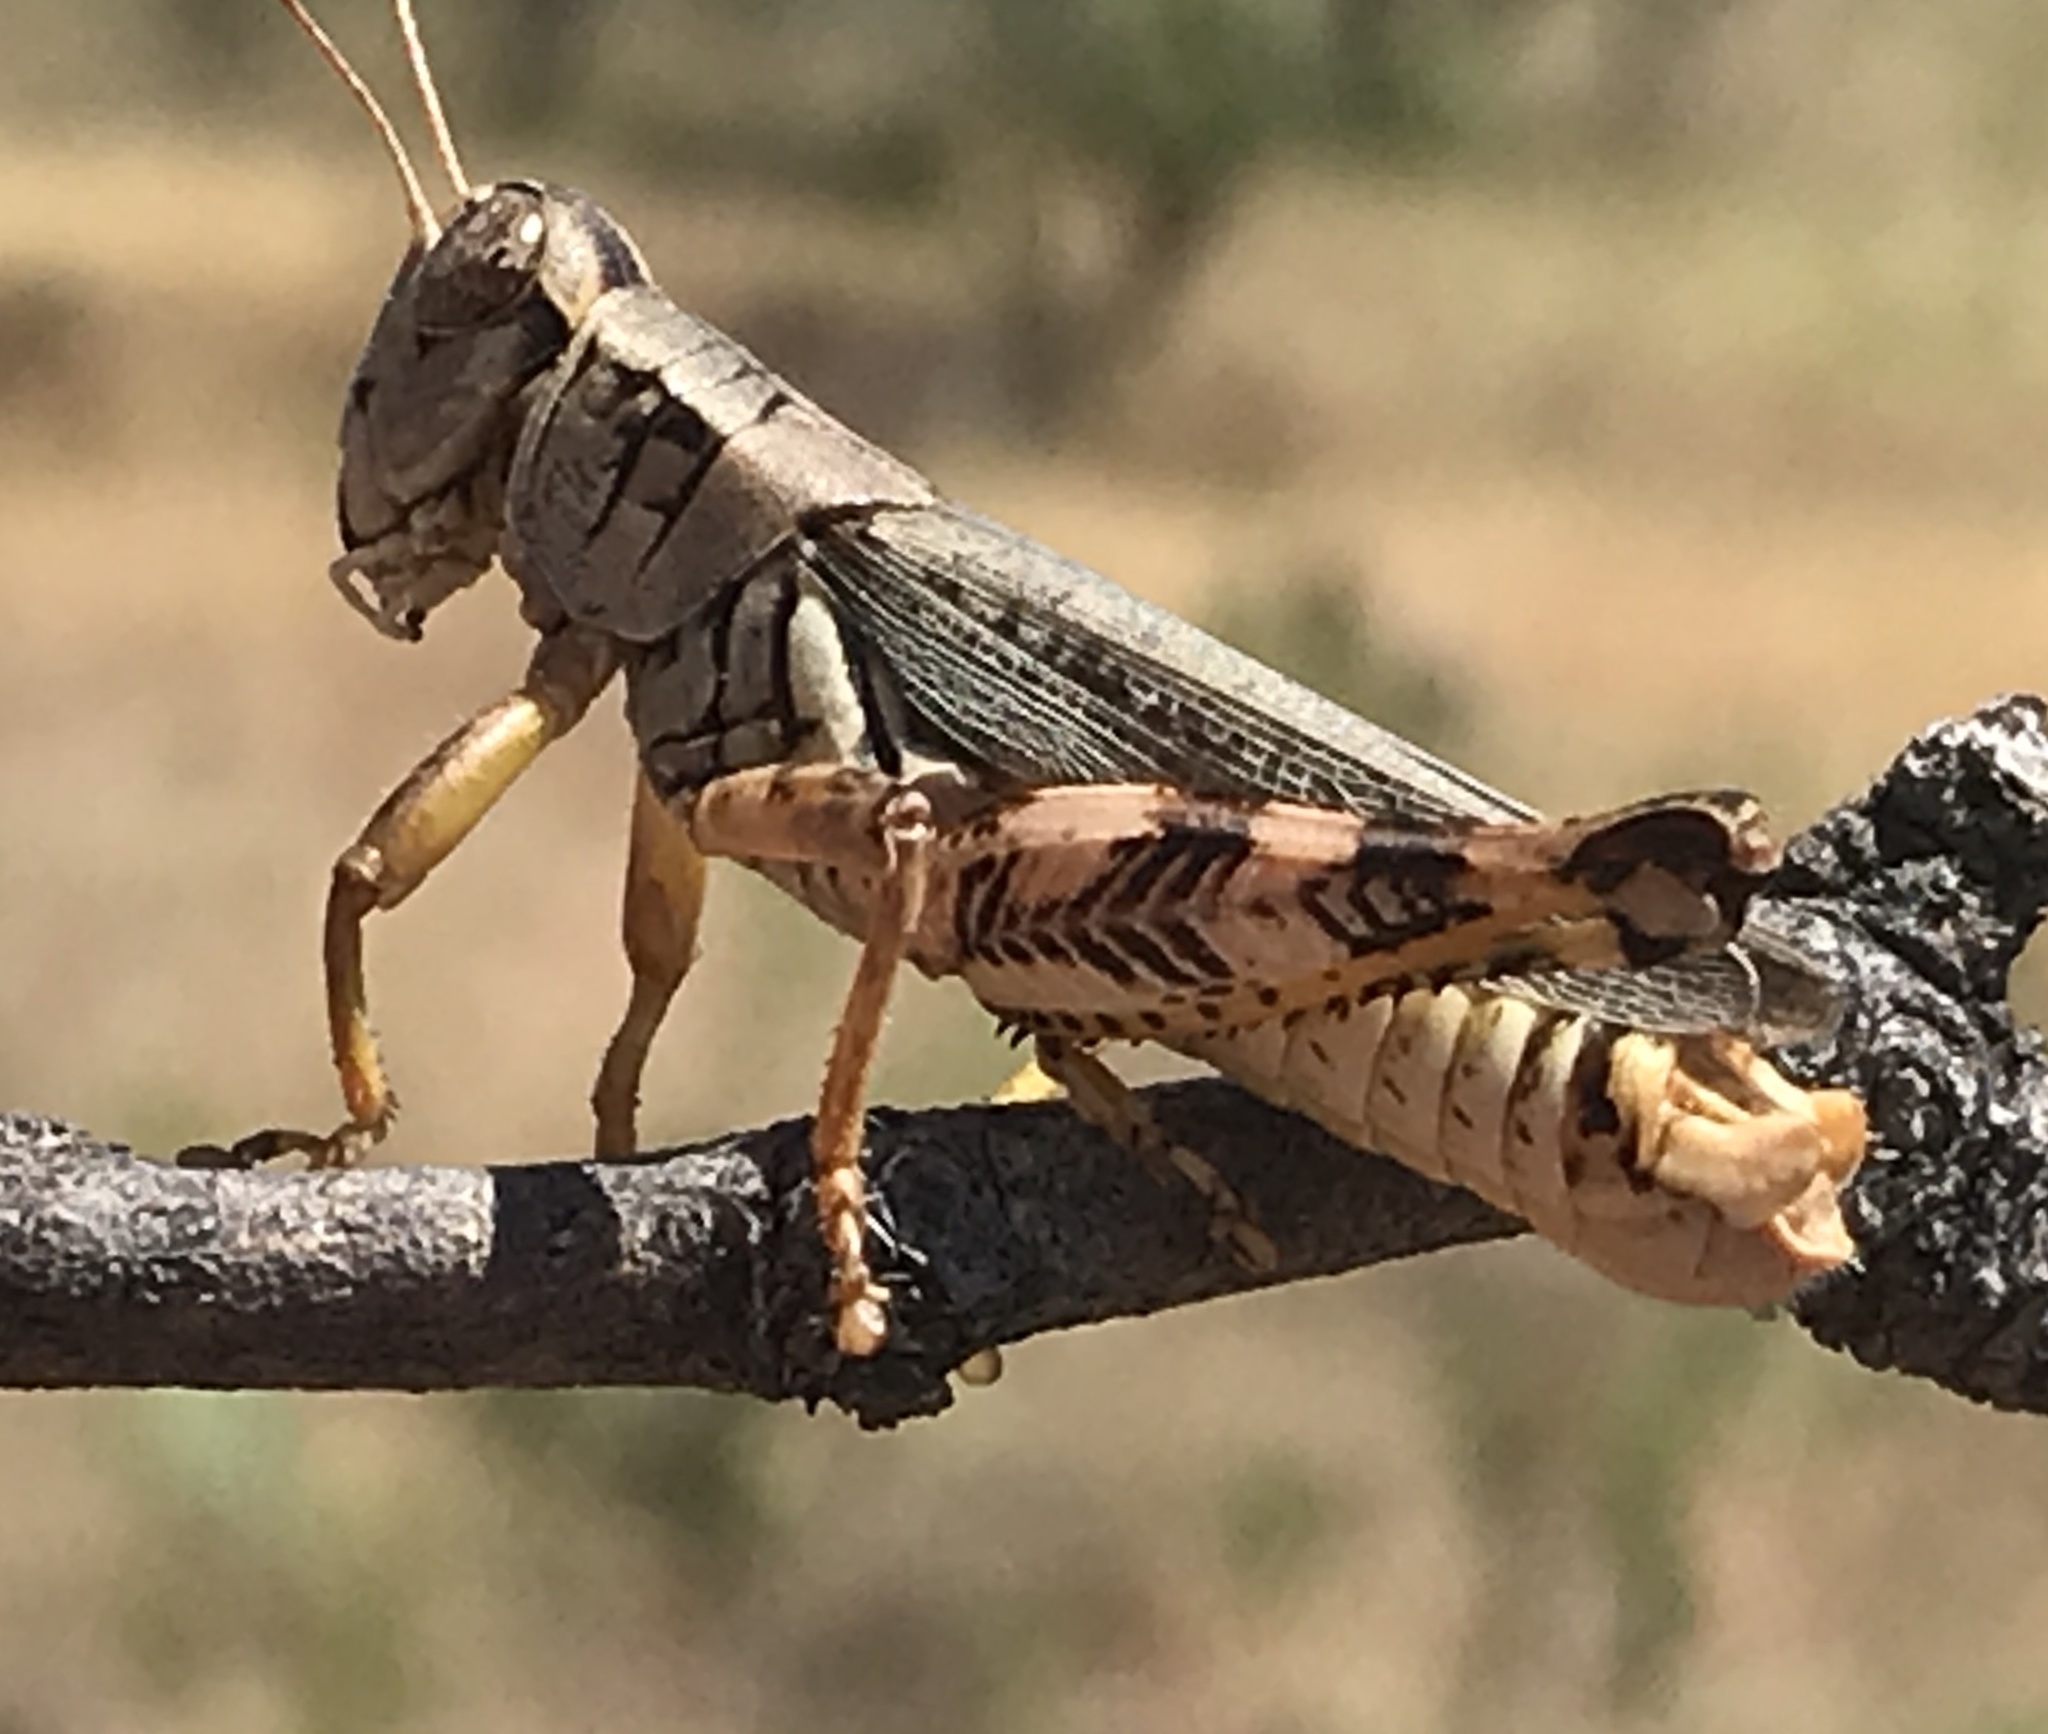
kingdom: Animalia
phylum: Arthropoda
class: Insecta
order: Orthoptera
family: Acrididae
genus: Melanoplus
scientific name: Melanoplus ponderosus
